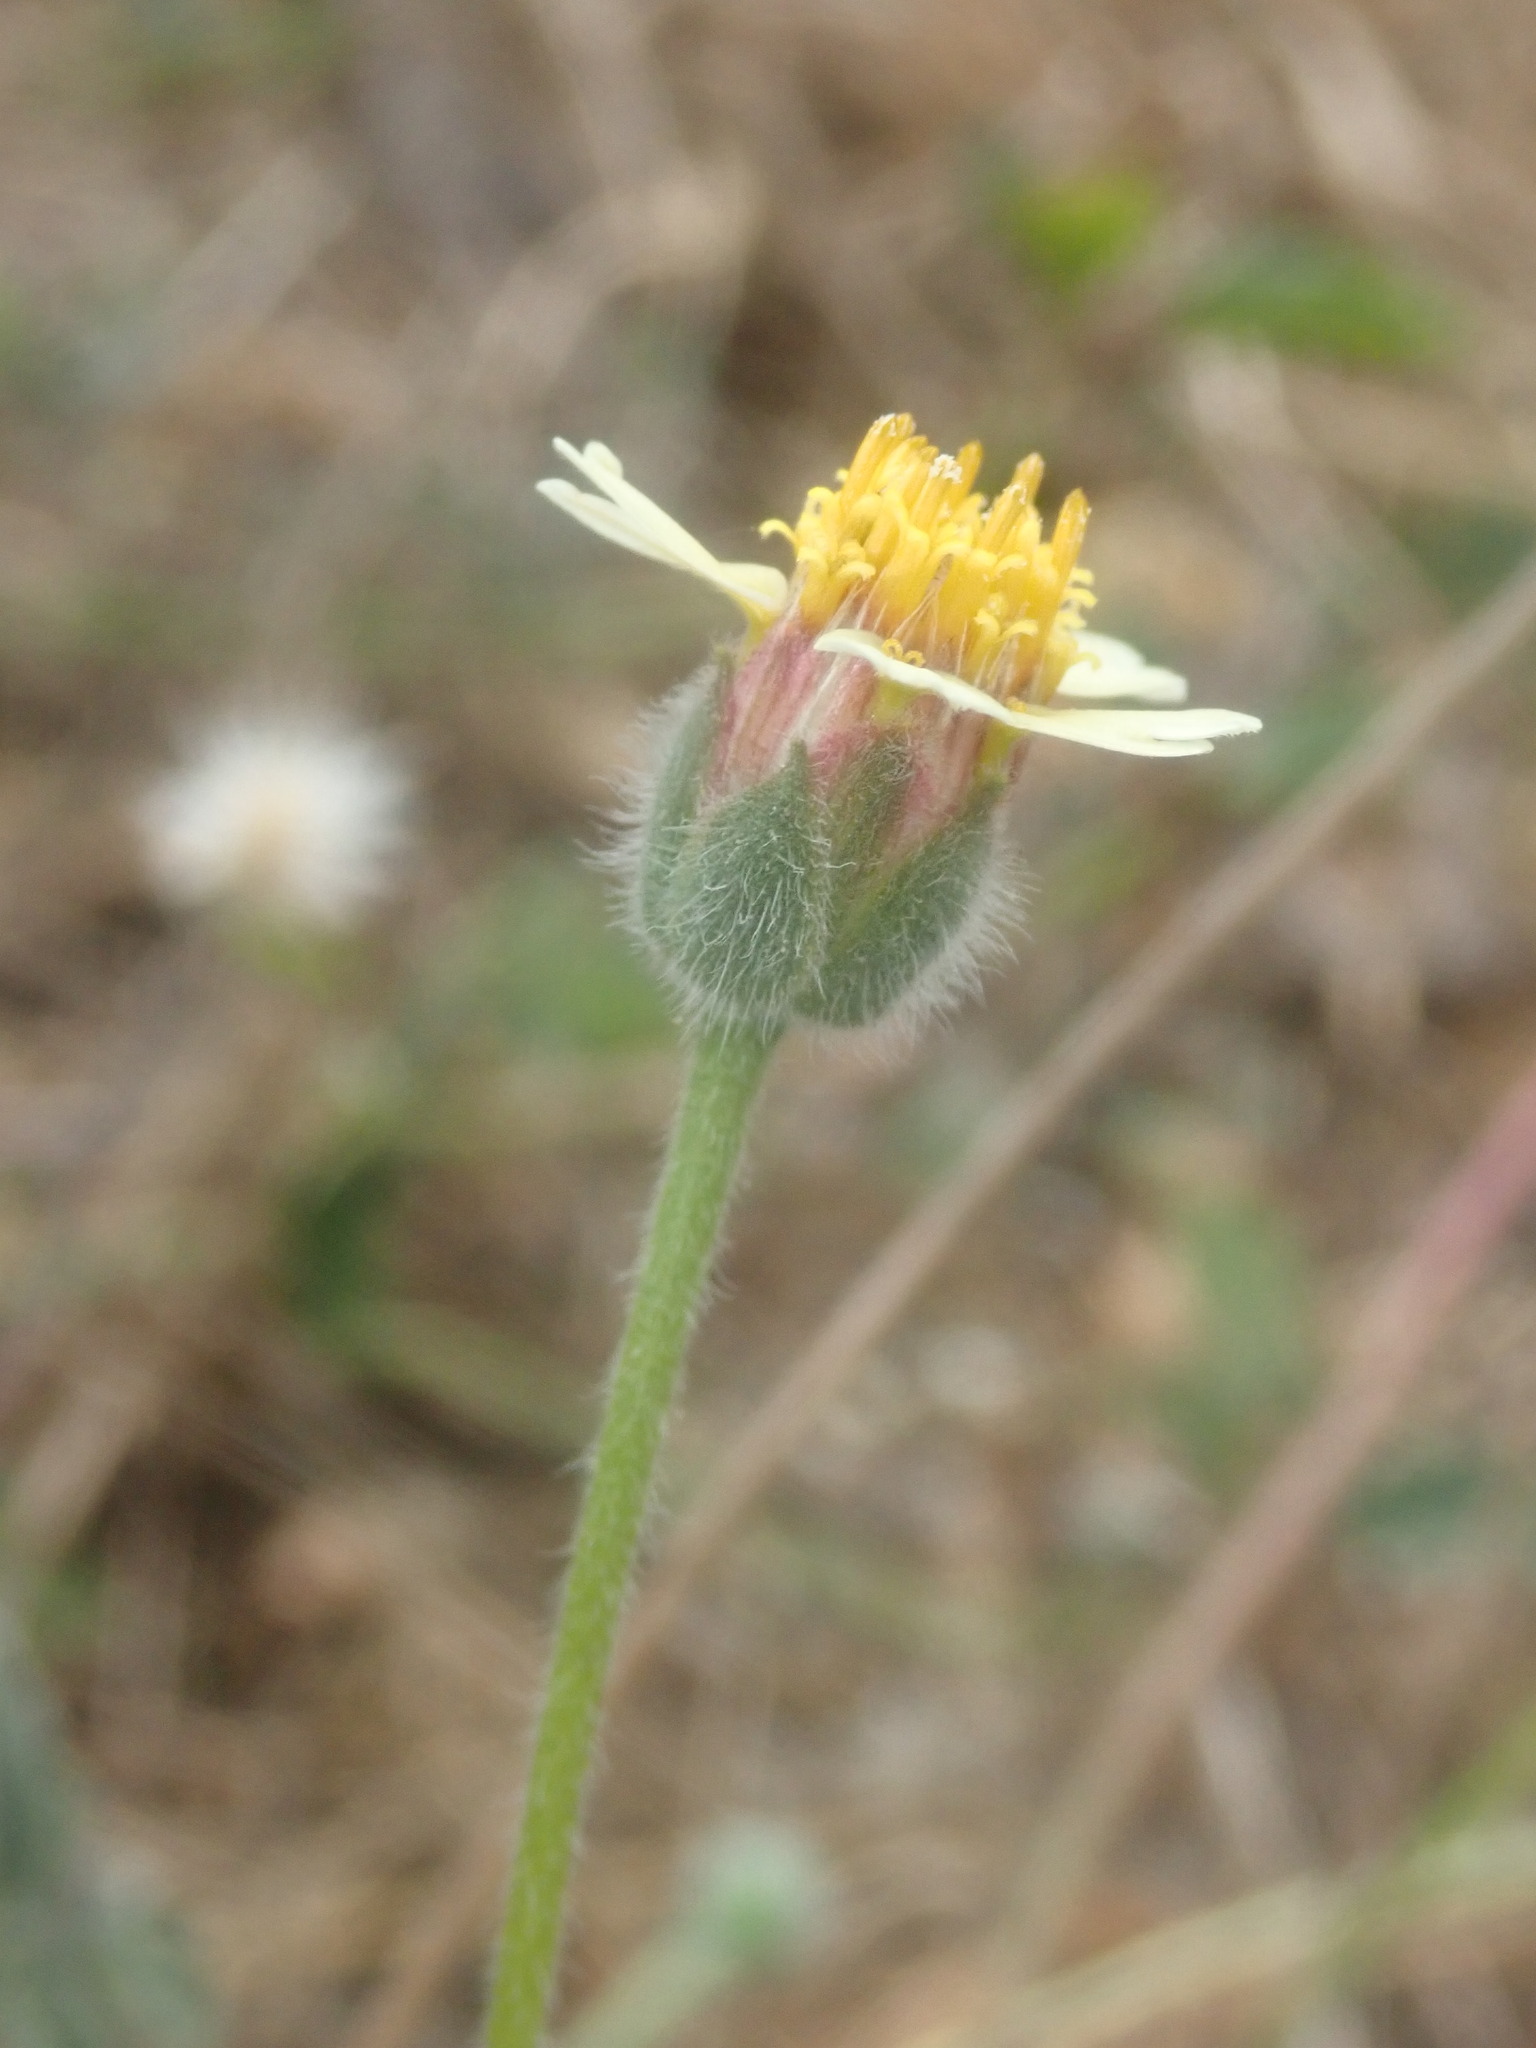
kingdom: Plantae
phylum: Tracheophyta
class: Magnoliopsida
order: Asterales
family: Asteraceae
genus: Tridax
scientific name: Tridax procumbens
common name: Coatbuttons
